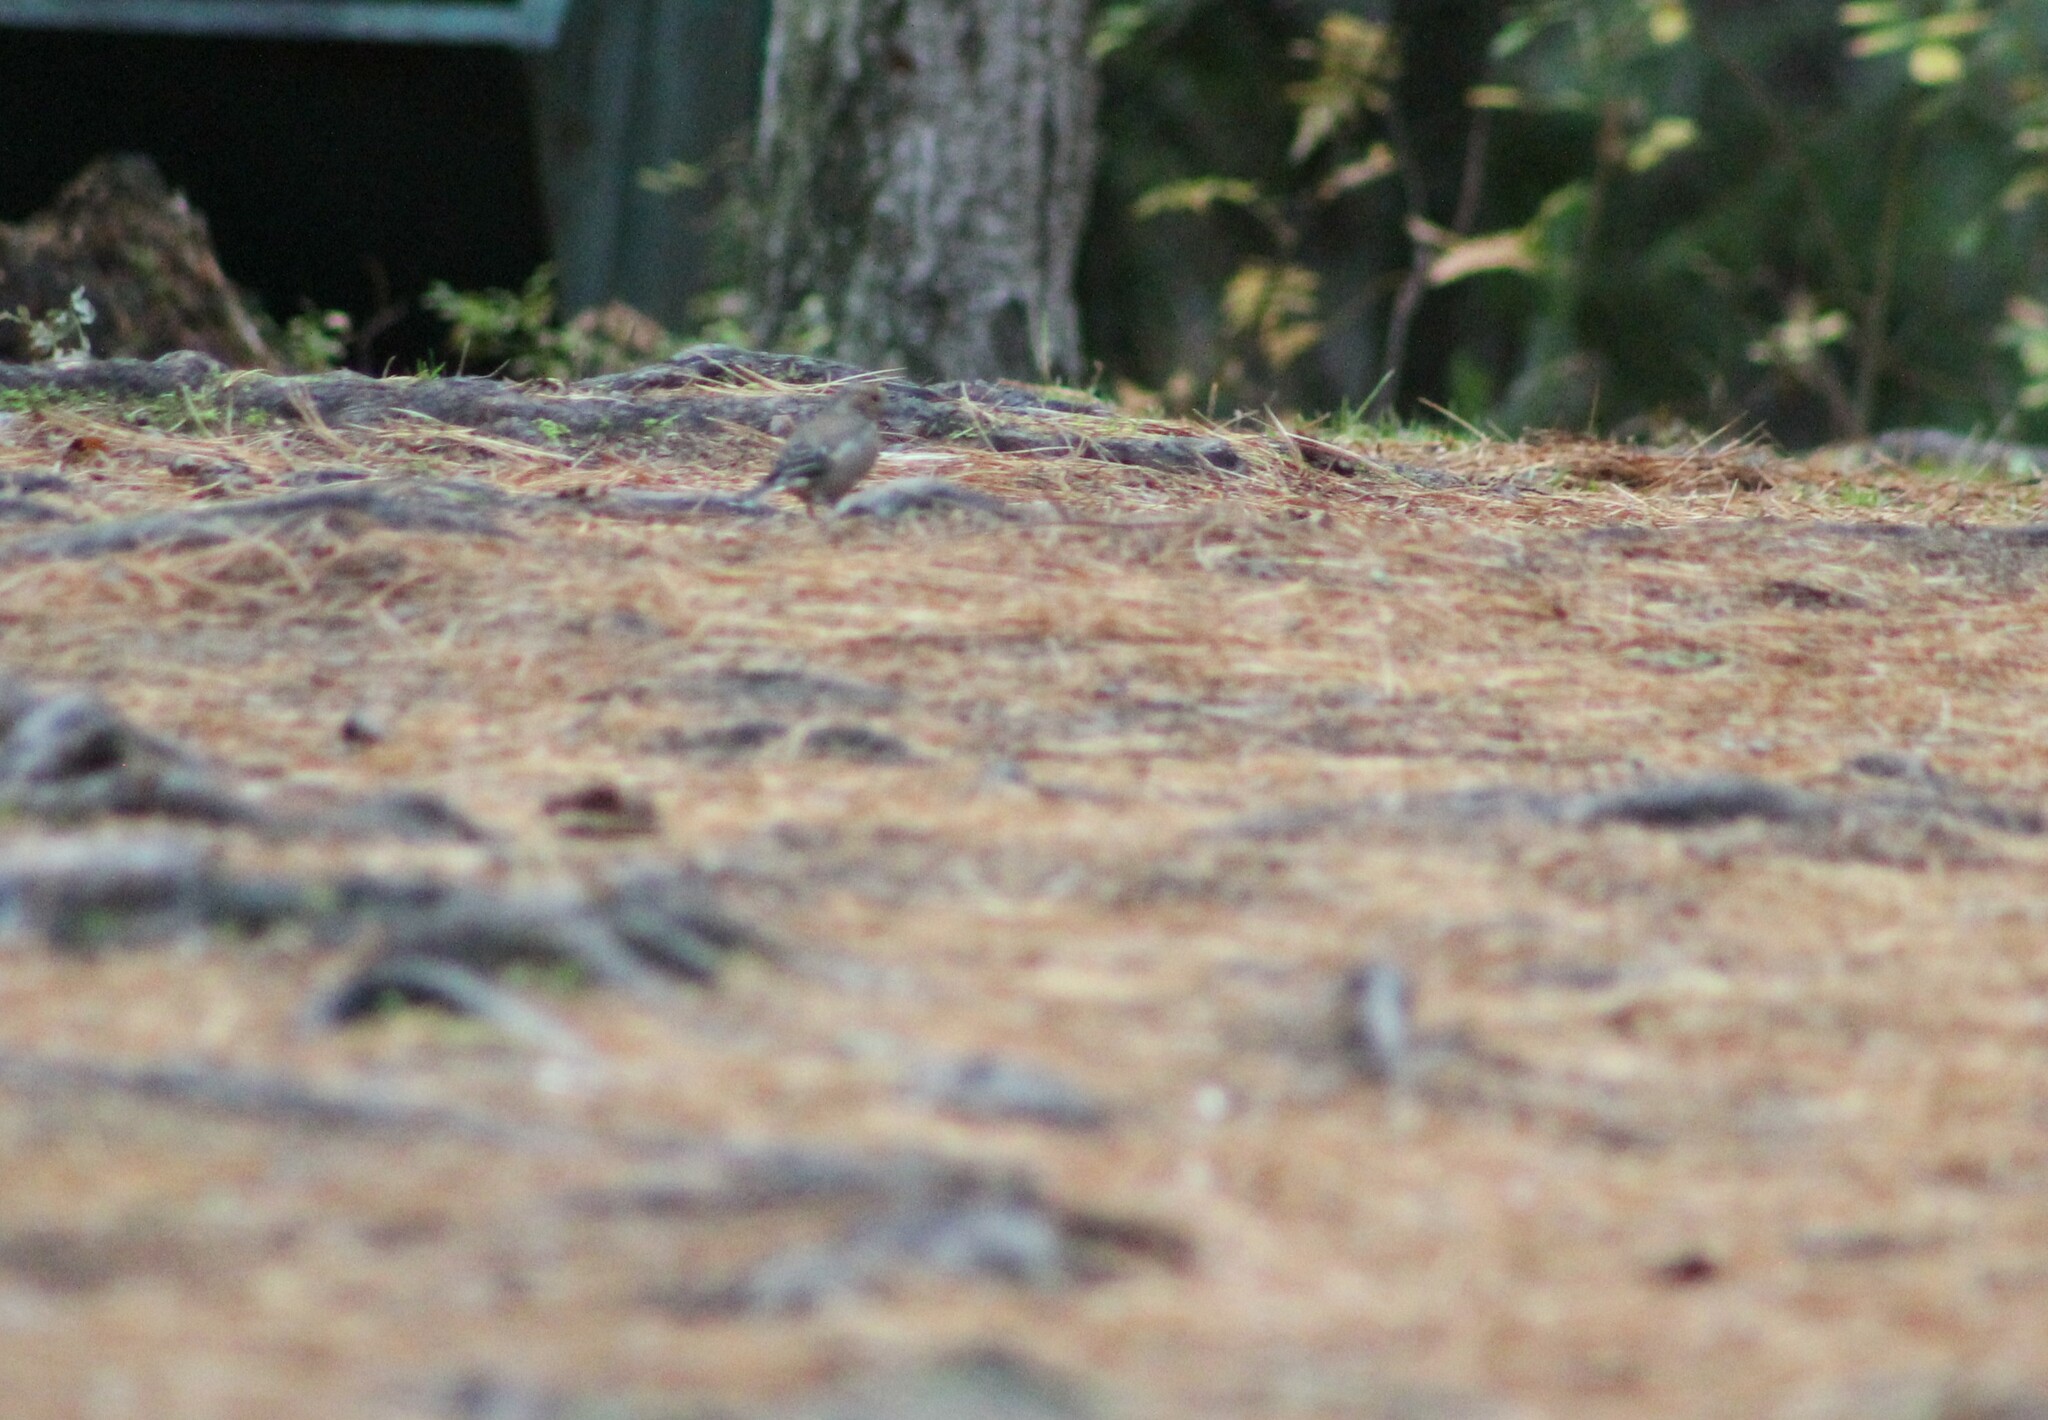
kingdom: Animalia
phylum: Chordata
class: Aves
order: Passeriformes
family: Fringillidae
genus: Fringilla
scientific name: Fringilla coelebs
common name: Common chaffinch
